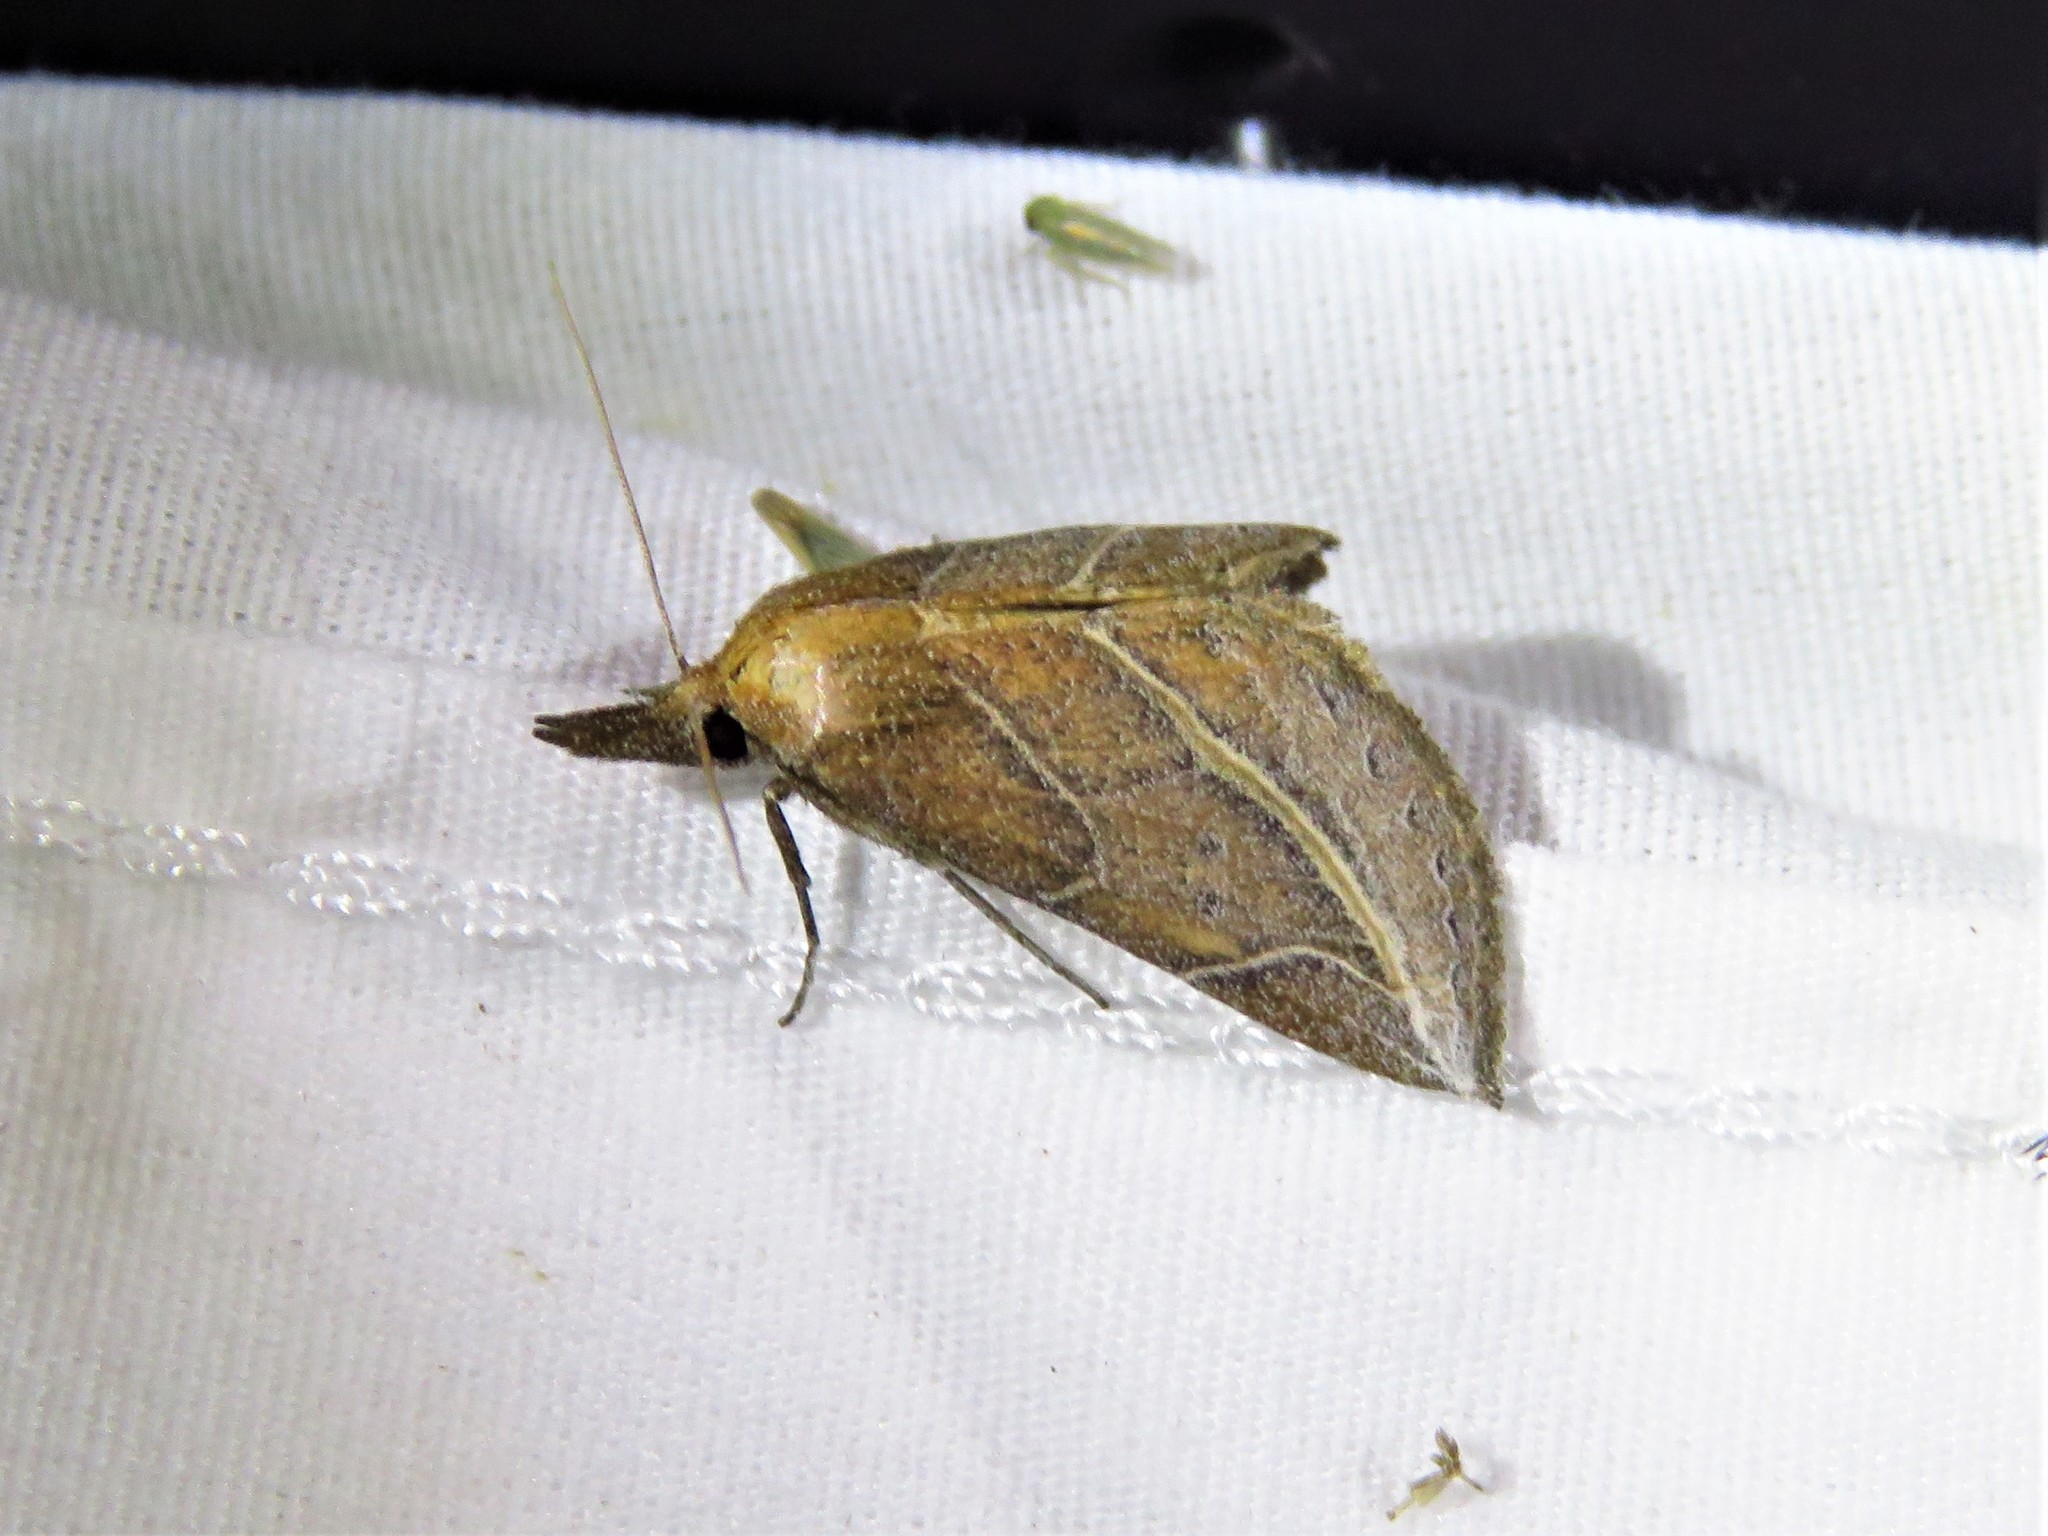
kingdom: Animalia
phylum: Arthropoda
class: Insecta
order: Lepidoptera
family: Erebidae
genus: Phyprosopus
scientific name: Phyprosopus callitrichoides
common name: Curved-lined owlet
